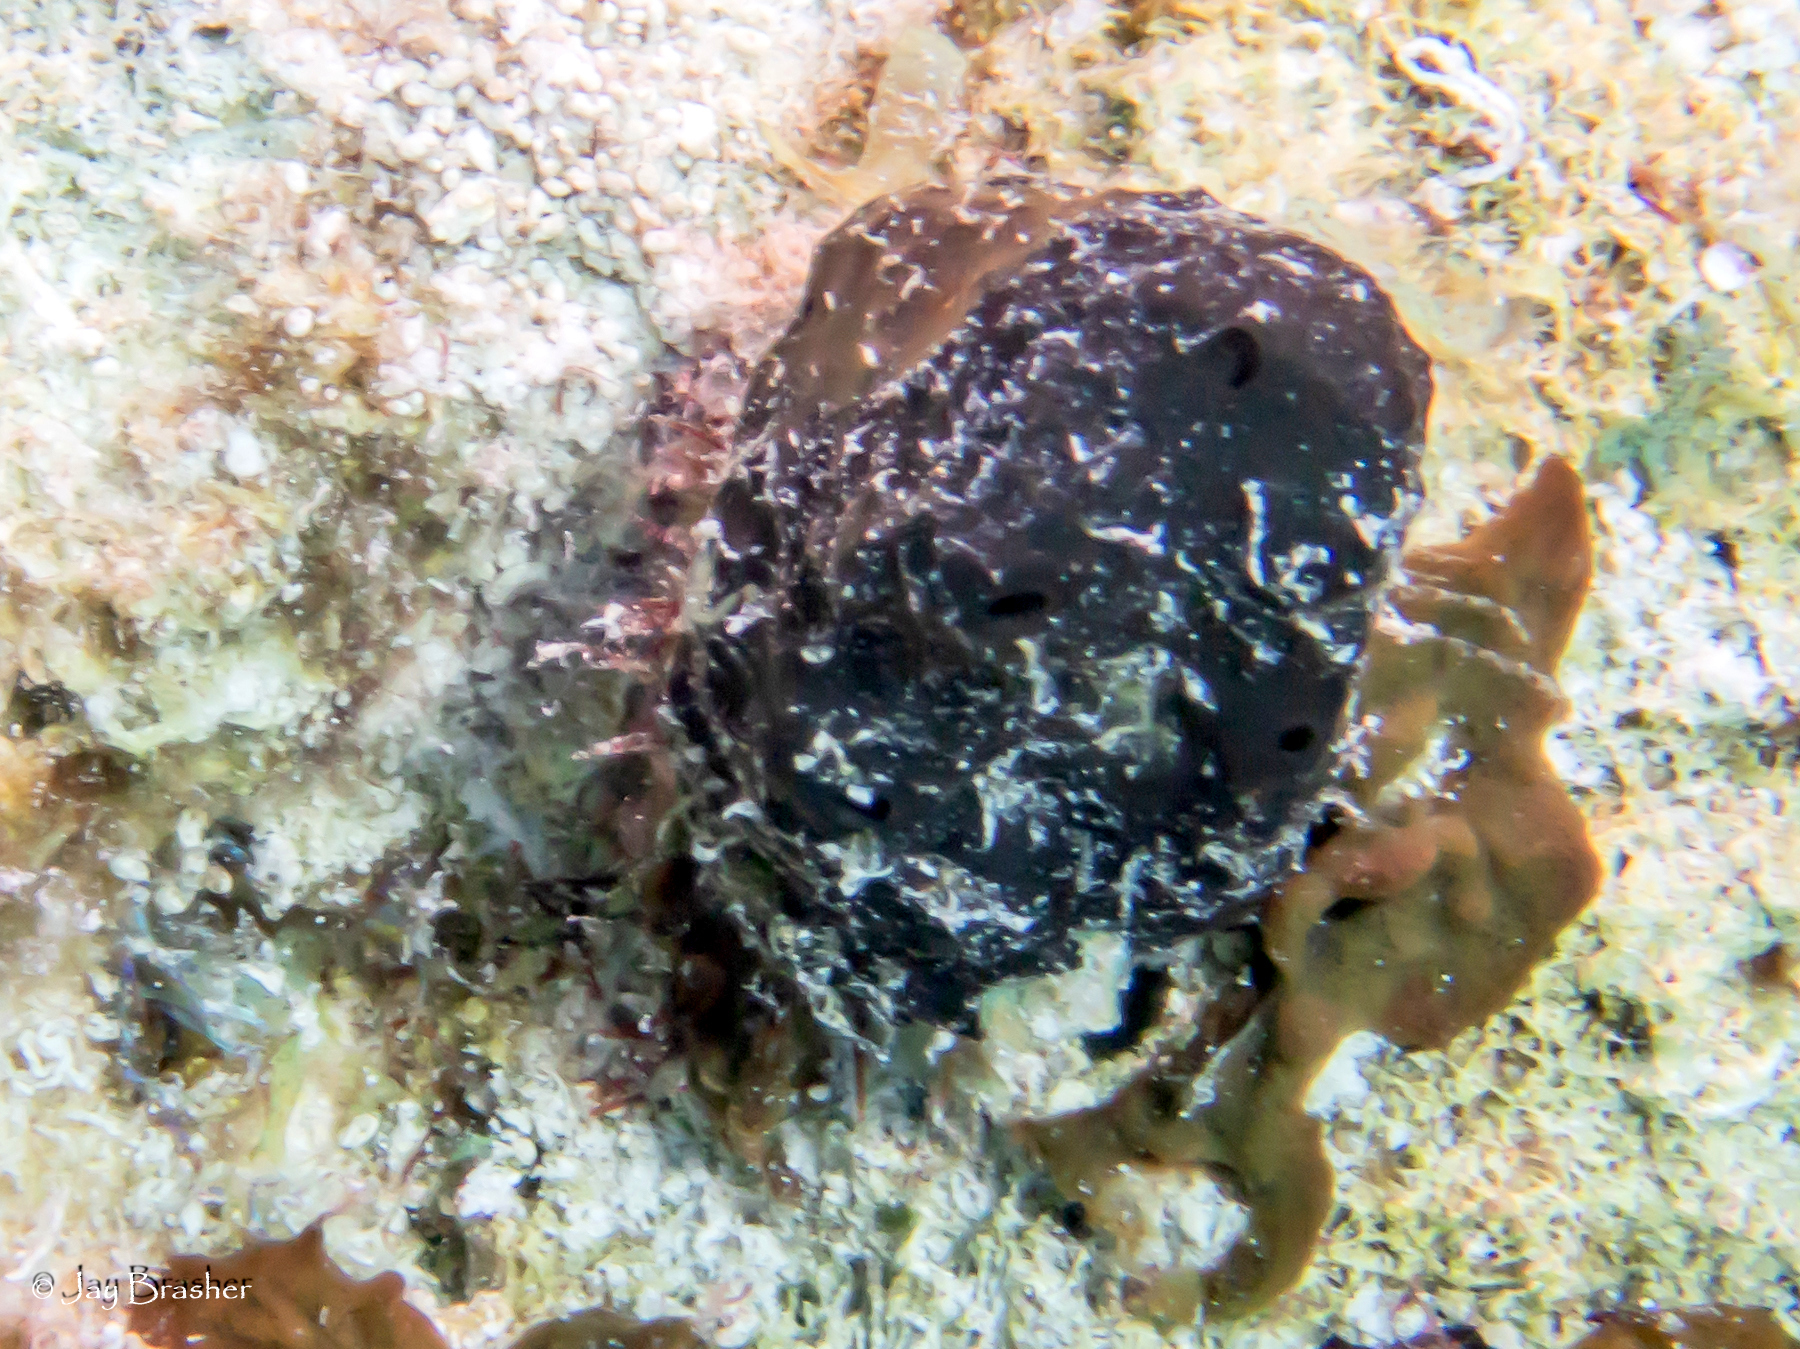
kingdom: Animalia
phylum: Porifera
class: Demospongiae
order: Dictyoceratida
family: Spongiidae
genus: Spongia
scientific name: Spongia obscura
